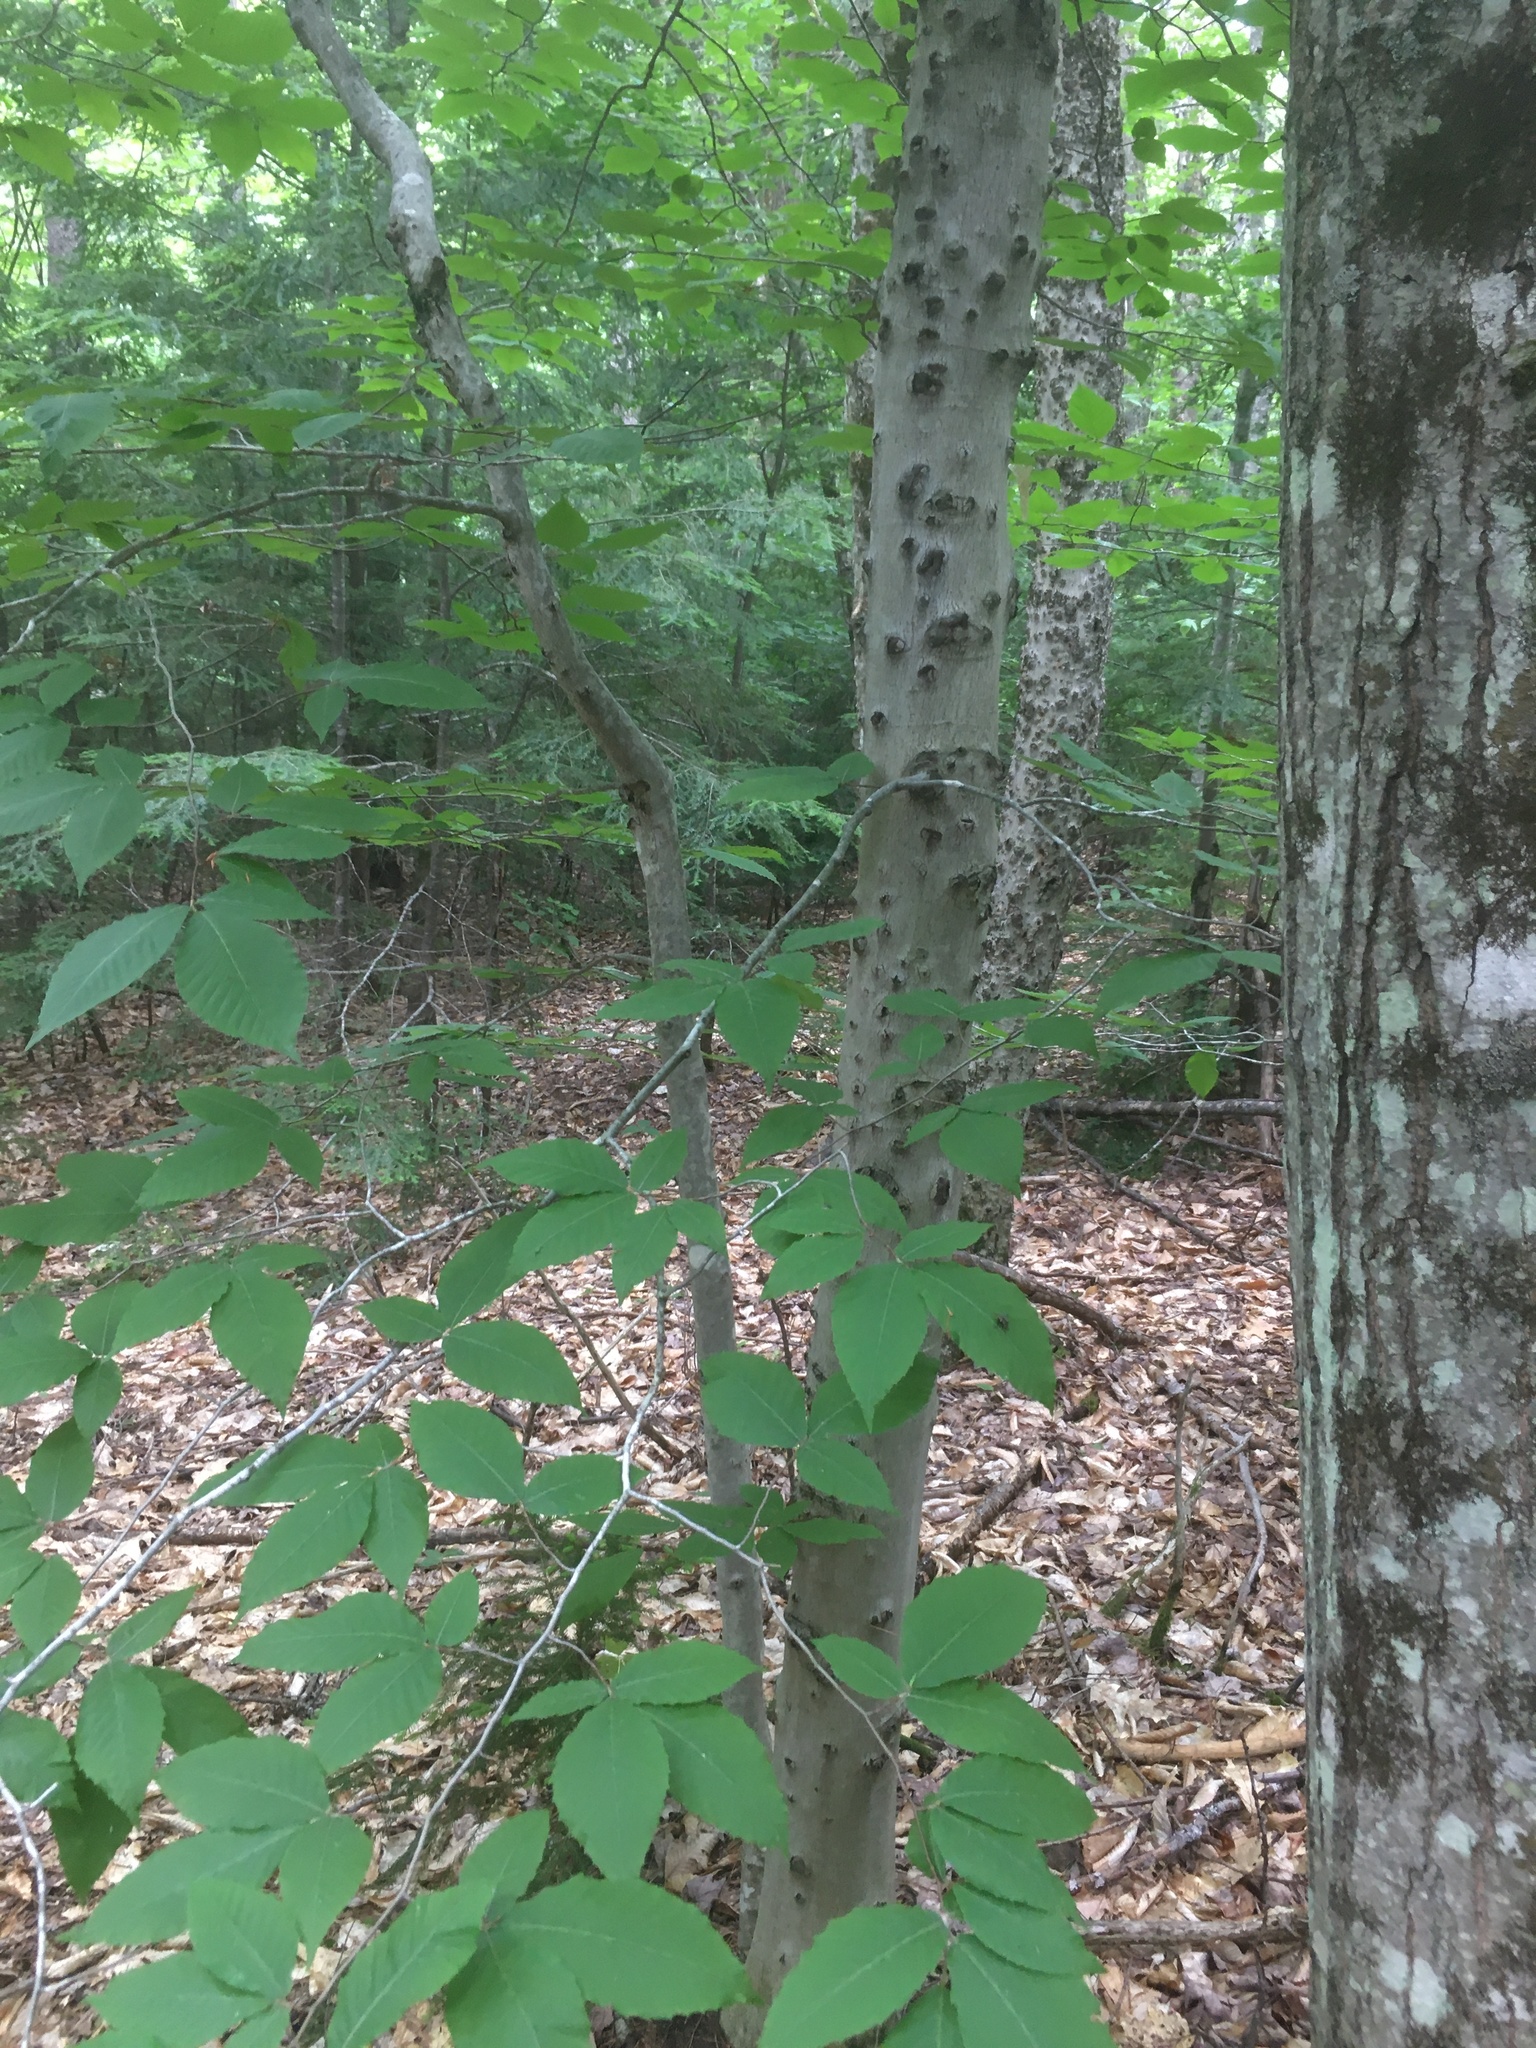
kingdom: Plantae
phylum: Tracheophyta
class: Magnoliopsida
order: Fagales
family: Fagaceae
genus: Fagus
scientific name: Fagus grandifolia
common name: American beech
